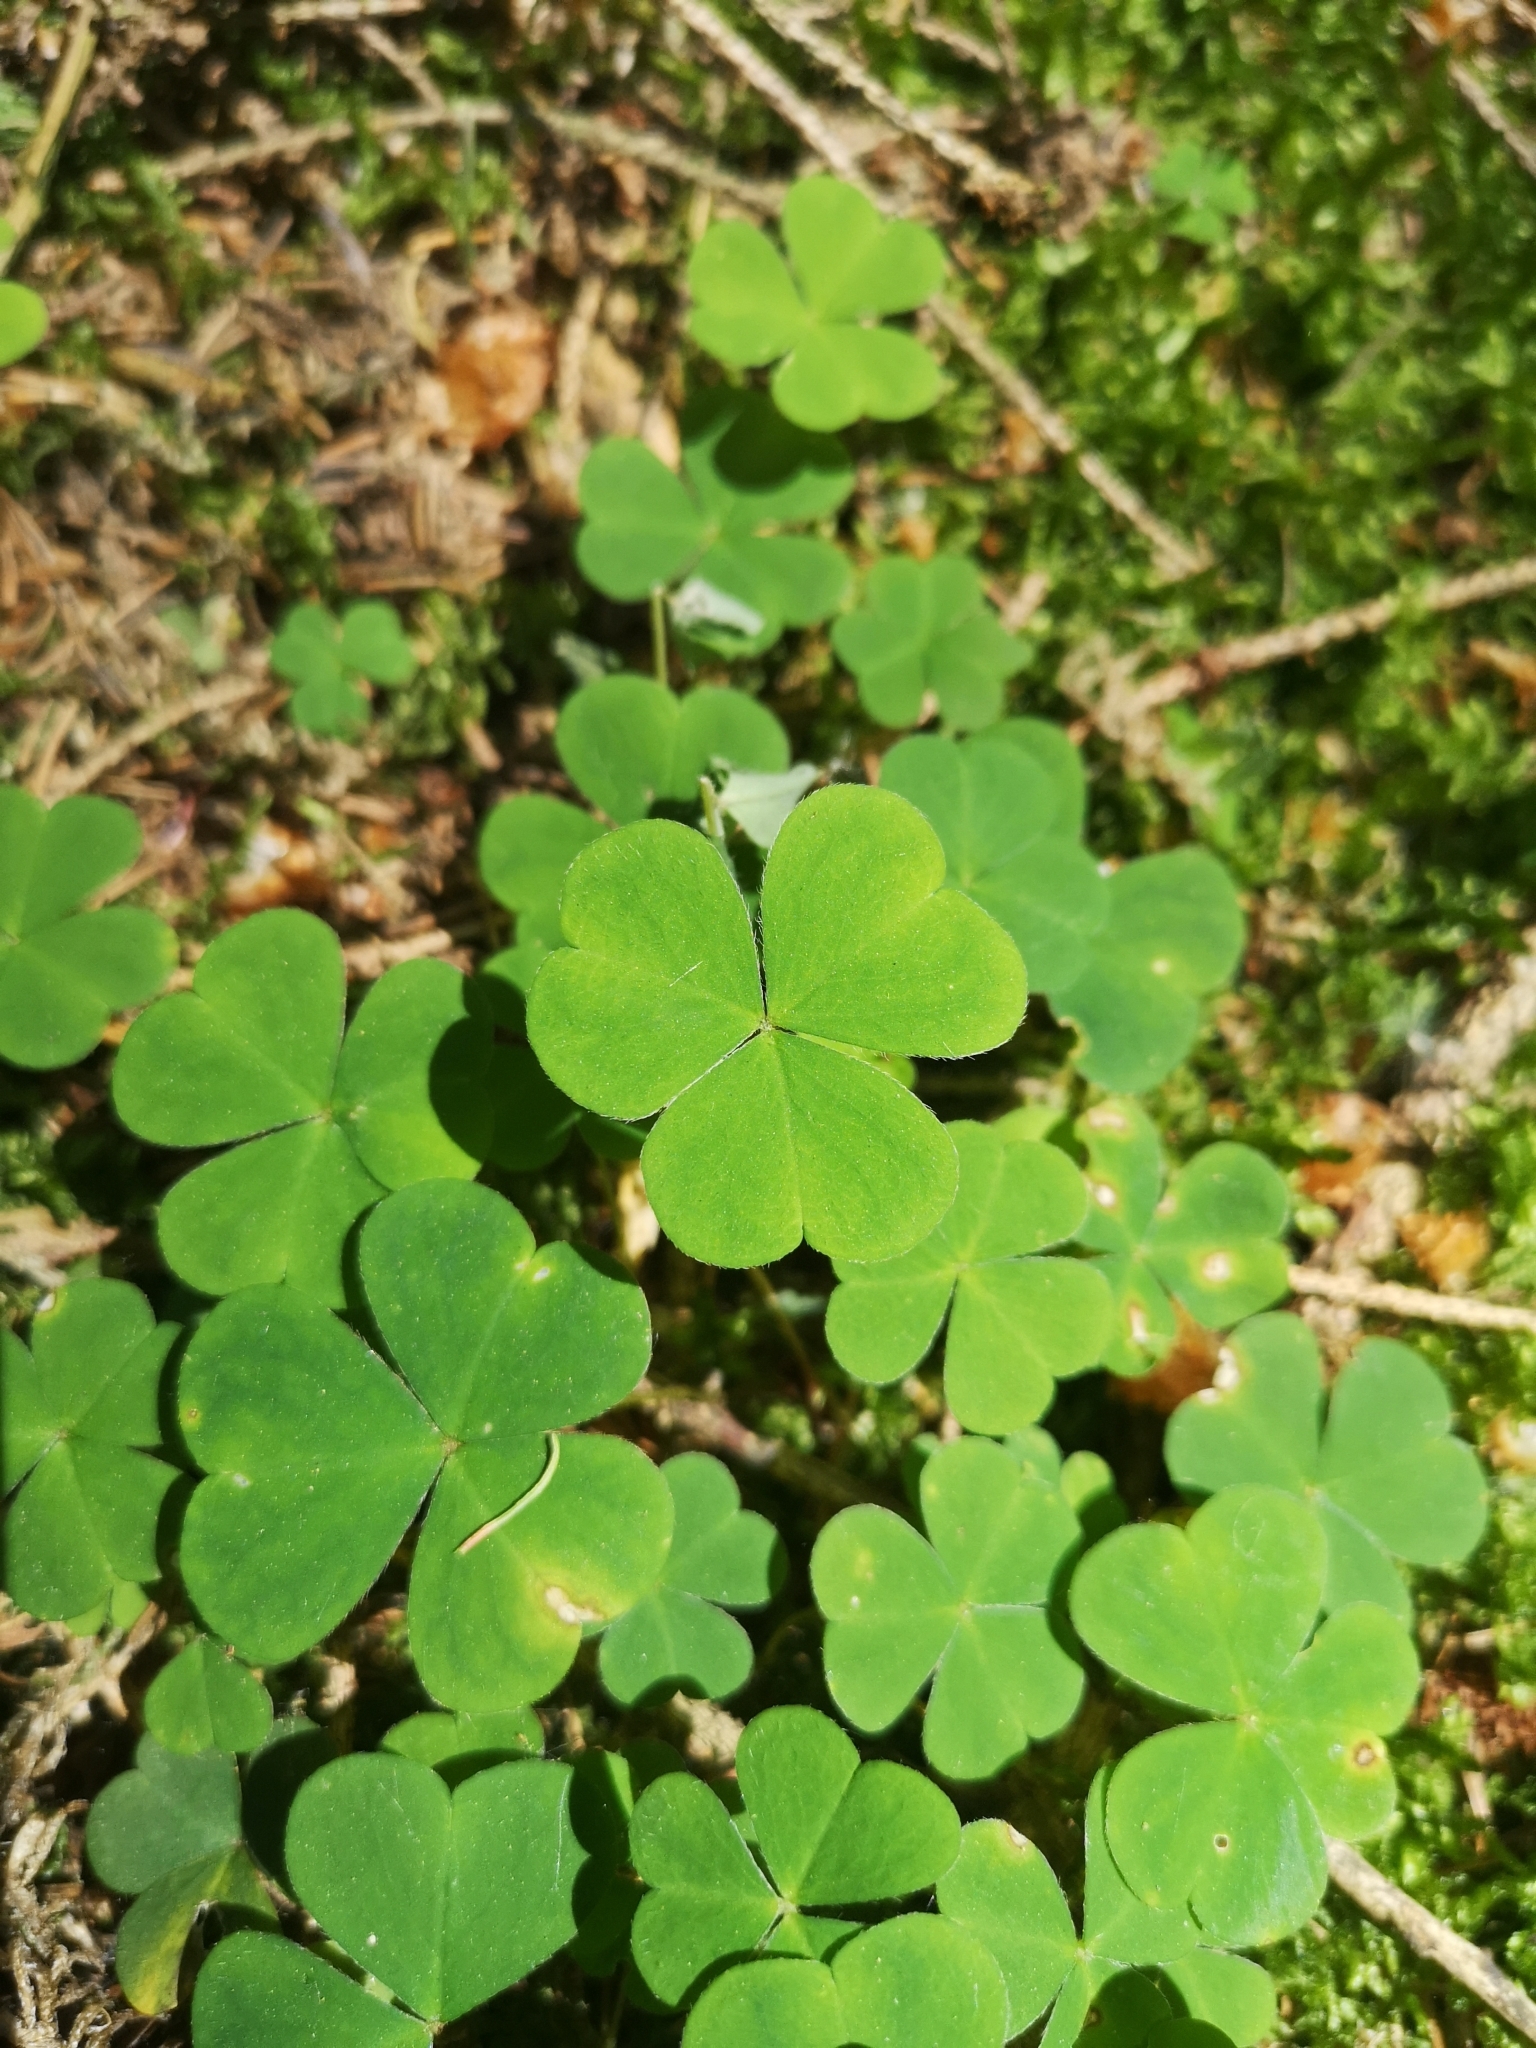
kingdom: Plantae
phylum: Tracheophyta
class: Magnoliopsida
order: Oxalidales
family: Oxalidaceae
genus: Oxalis
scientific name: Oxalis acetosella
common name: Wood-sorrel
